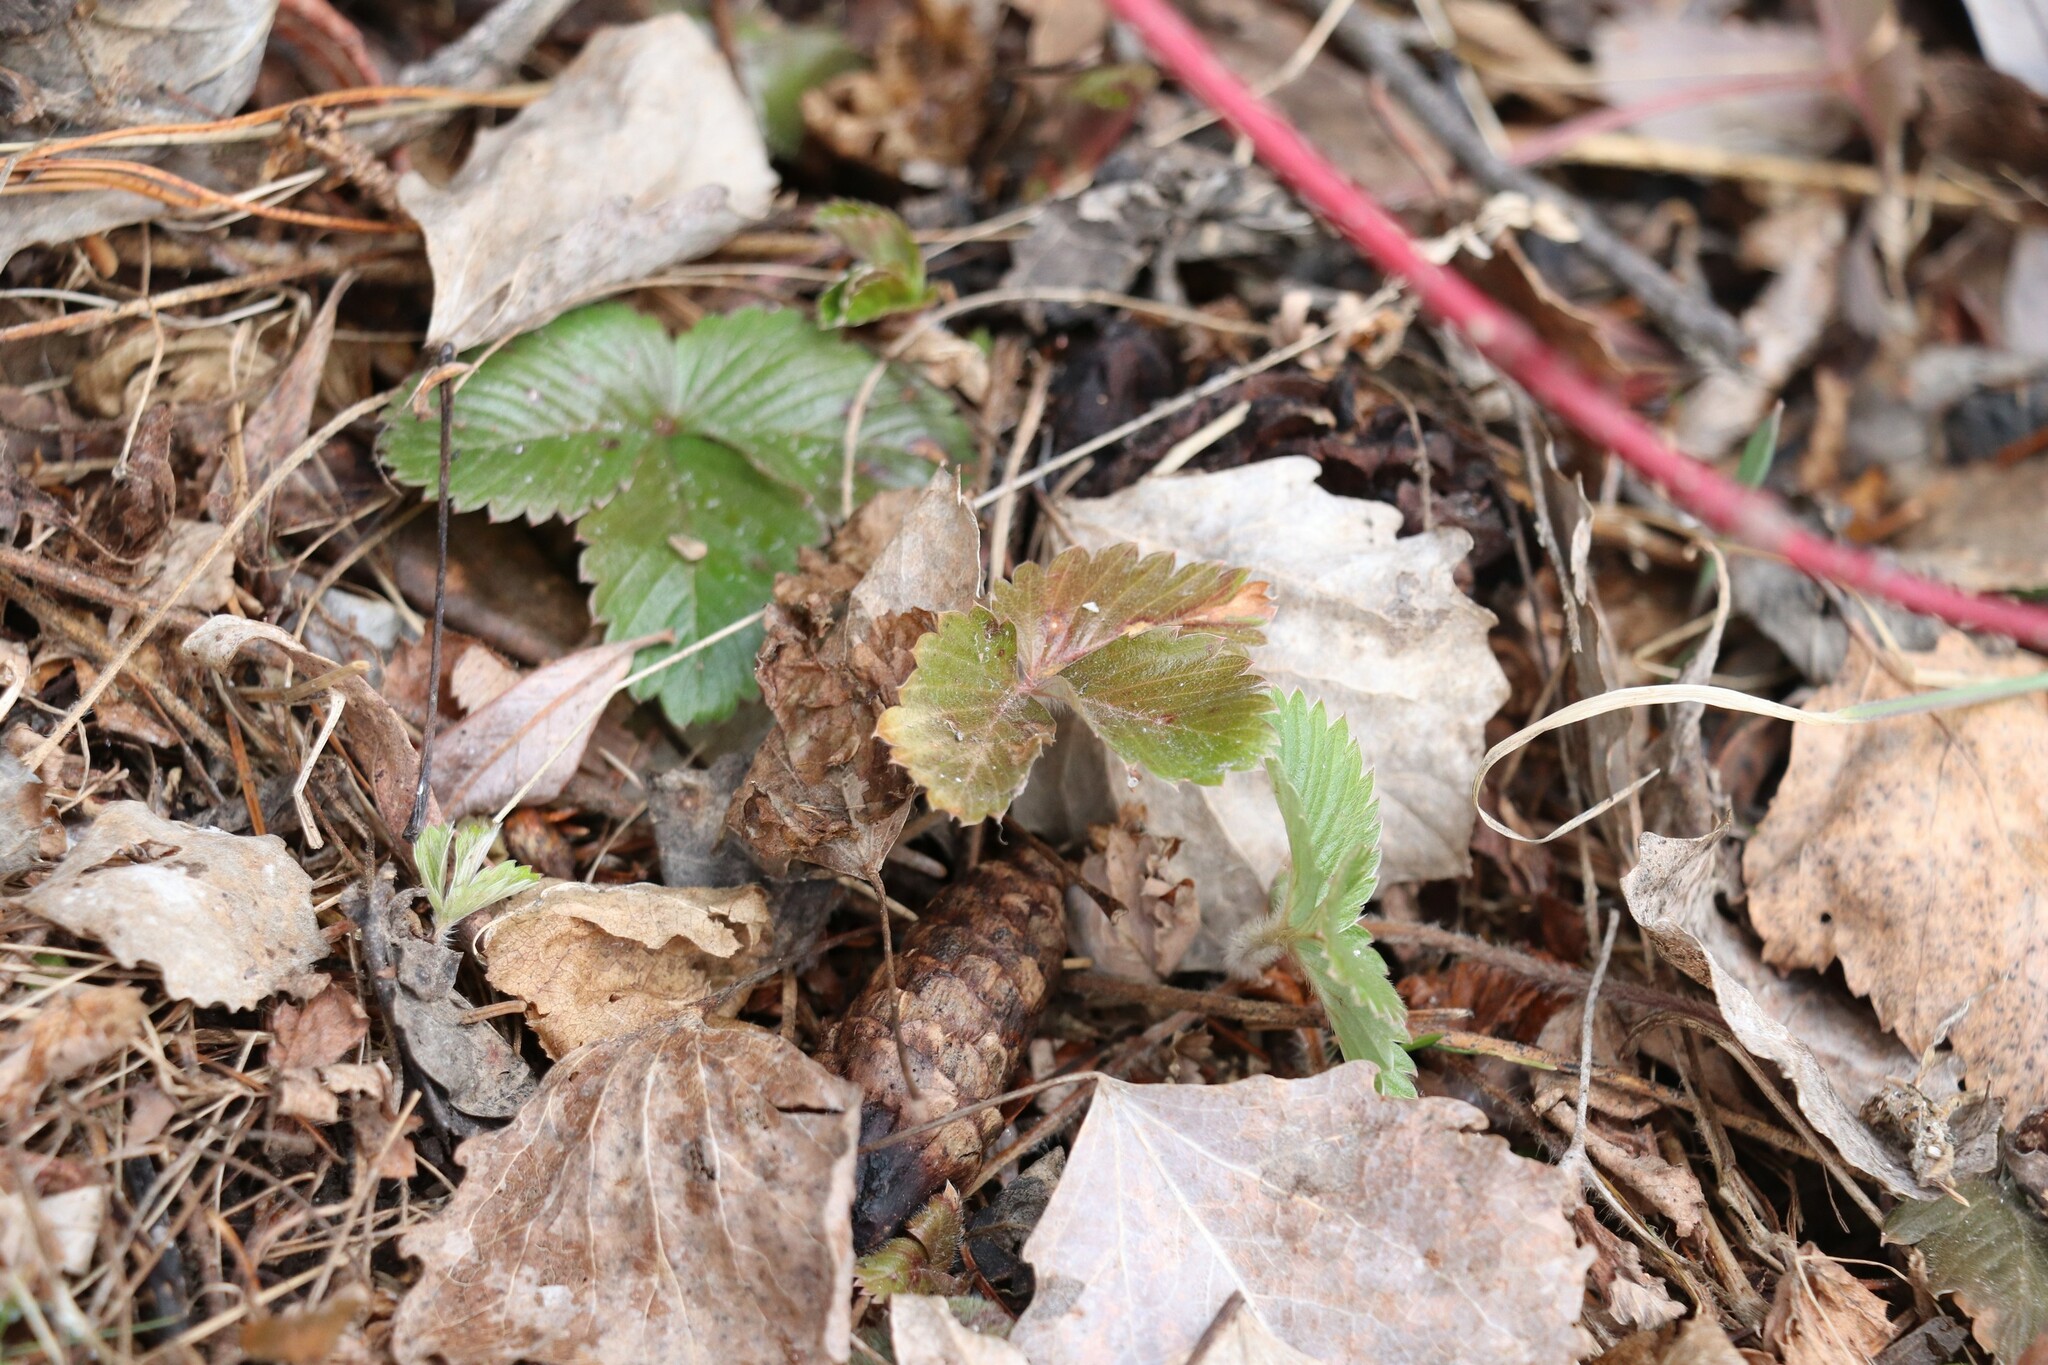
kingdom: Plantae
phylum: Tracheophyta
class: Magnoliopsida
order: Rosales
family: Rosaceae
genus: Fragaria
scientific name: Fragaria vesca
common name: Wild strawberry
